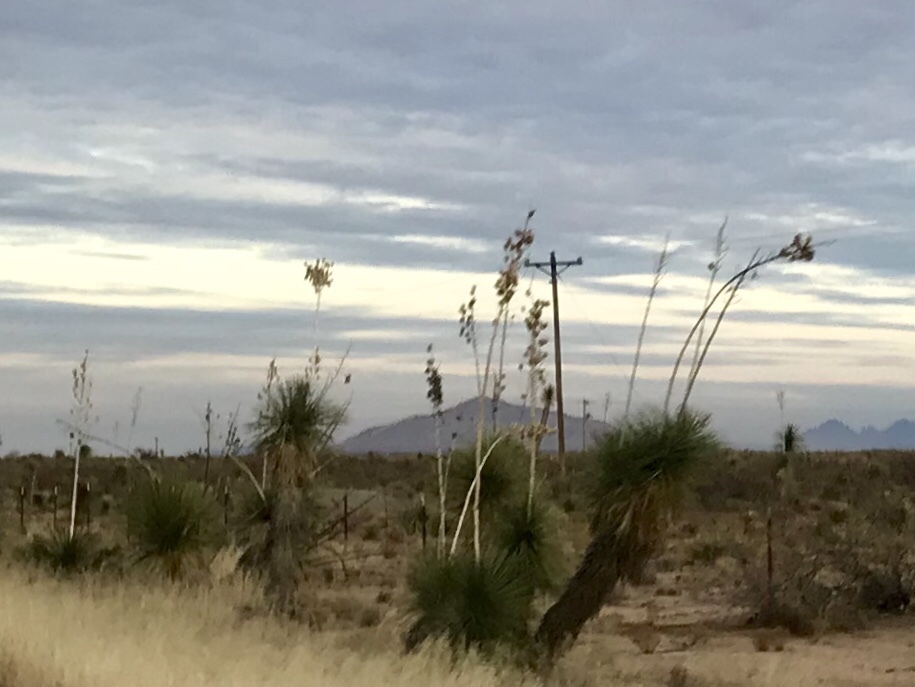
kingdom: Plantae
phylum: Tracheophyta
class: Liliopsida
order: Asparagales
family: Asparagaceae
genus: Yucca
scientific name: Yucca elata
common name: Palmella
